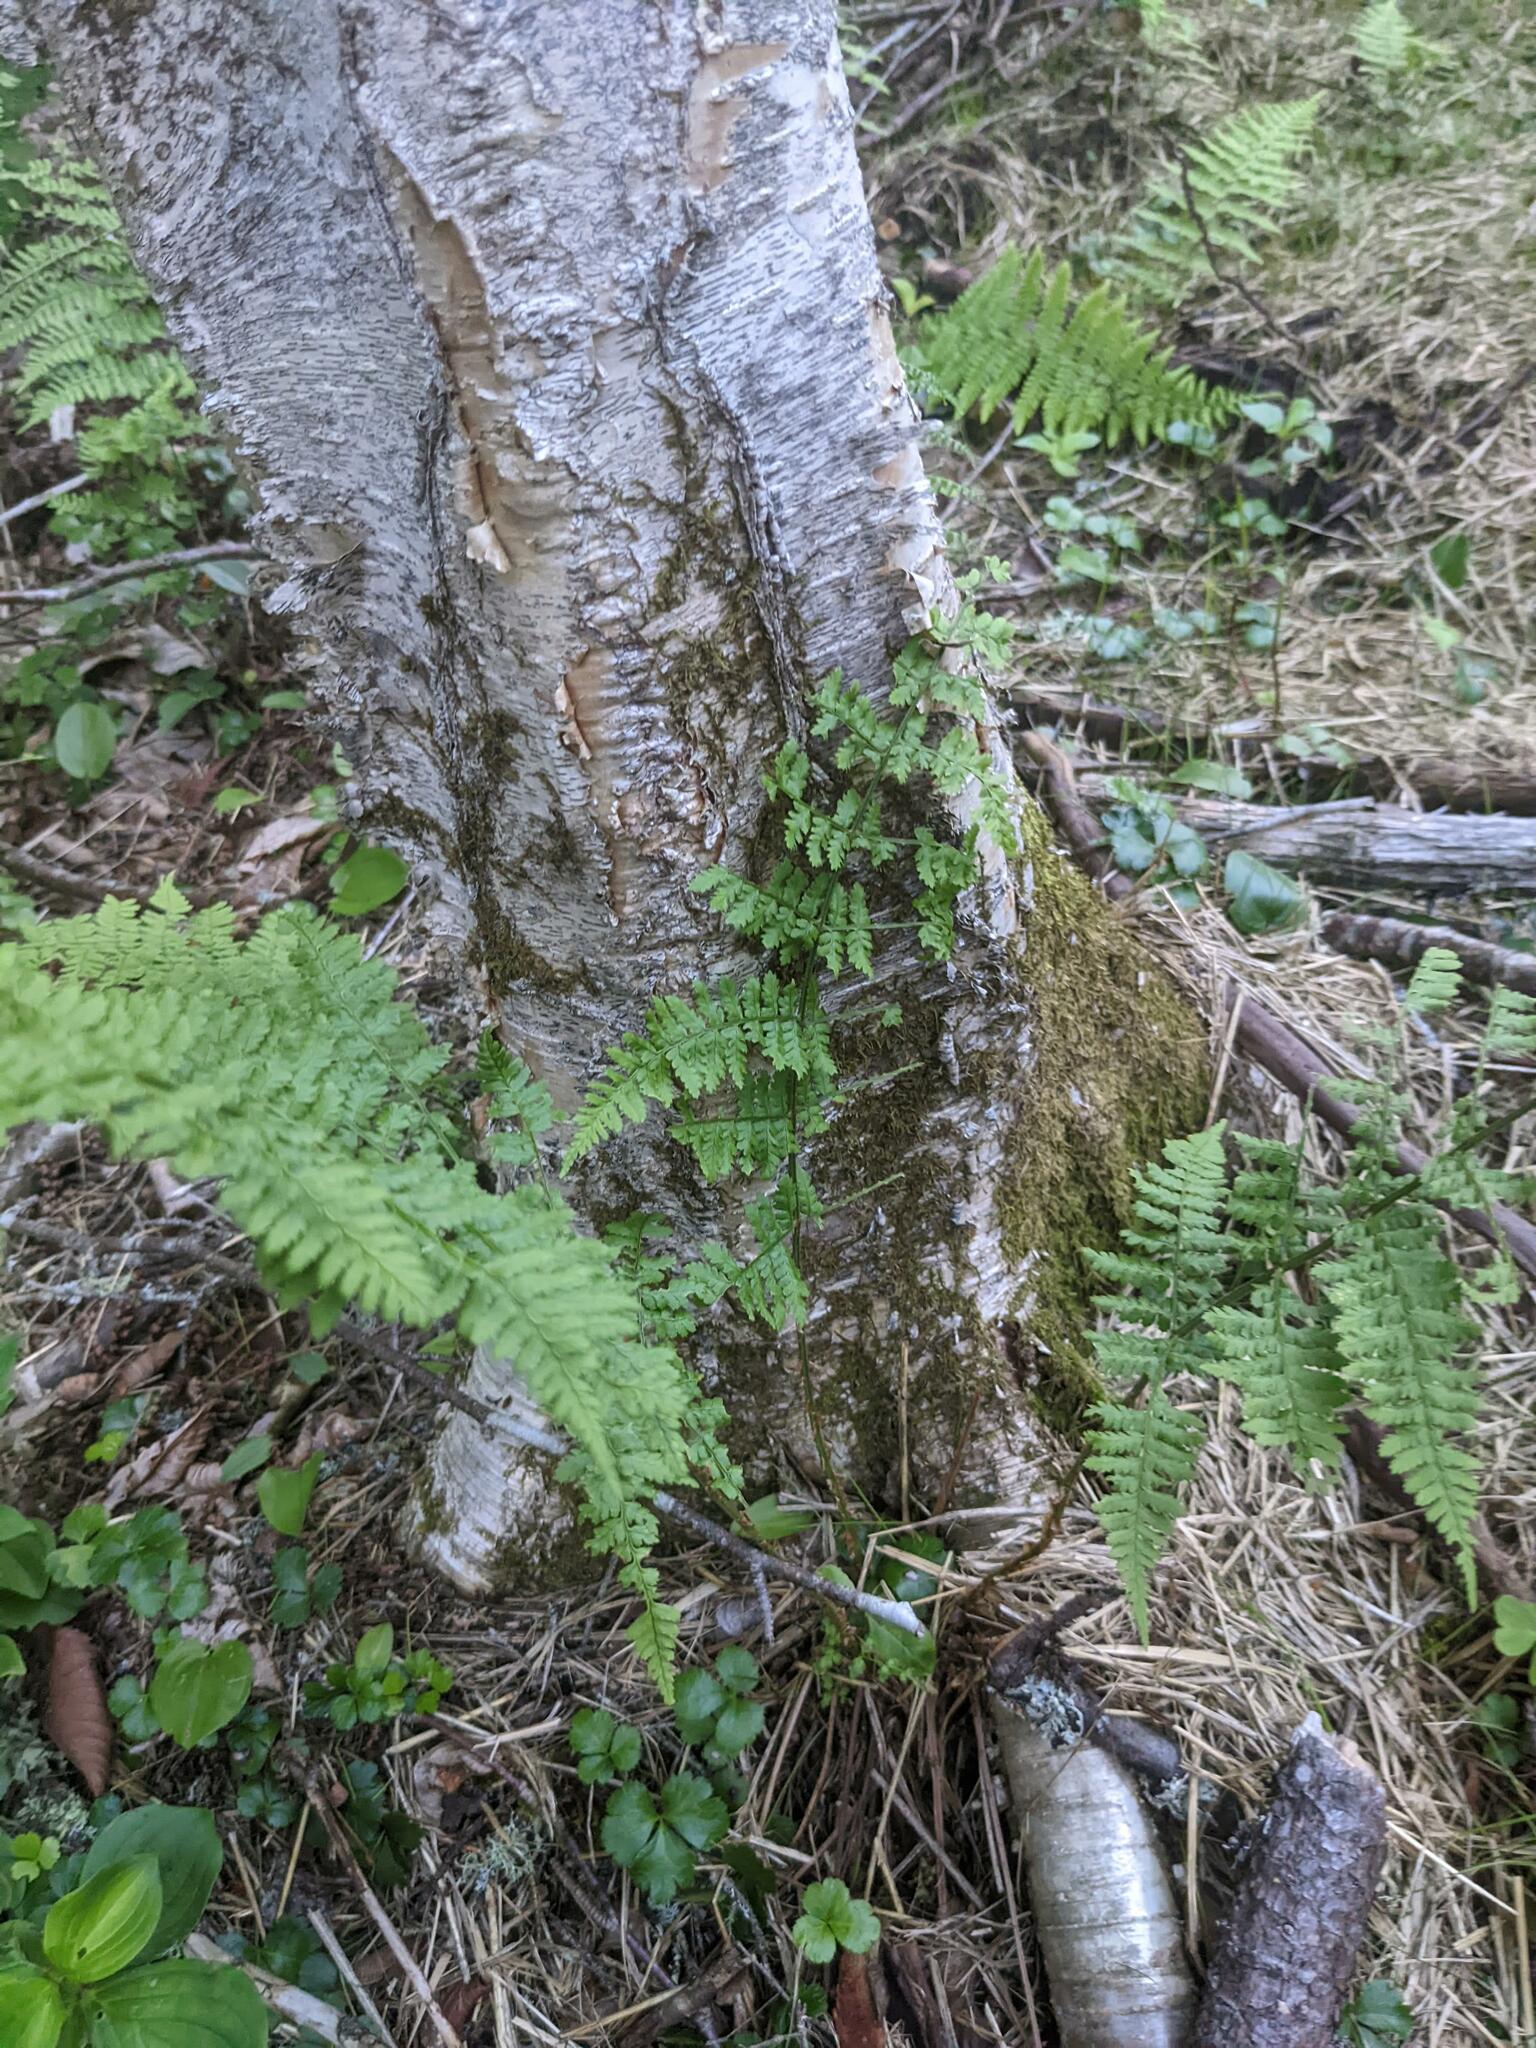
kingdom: Plantae
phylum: Tracheophyta
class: Polypodiopsida
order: Polypodiales
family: Dryopteridaceae
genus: Dryopteris
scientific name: Dryopteris intermedia
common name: Evergreen wood fern
